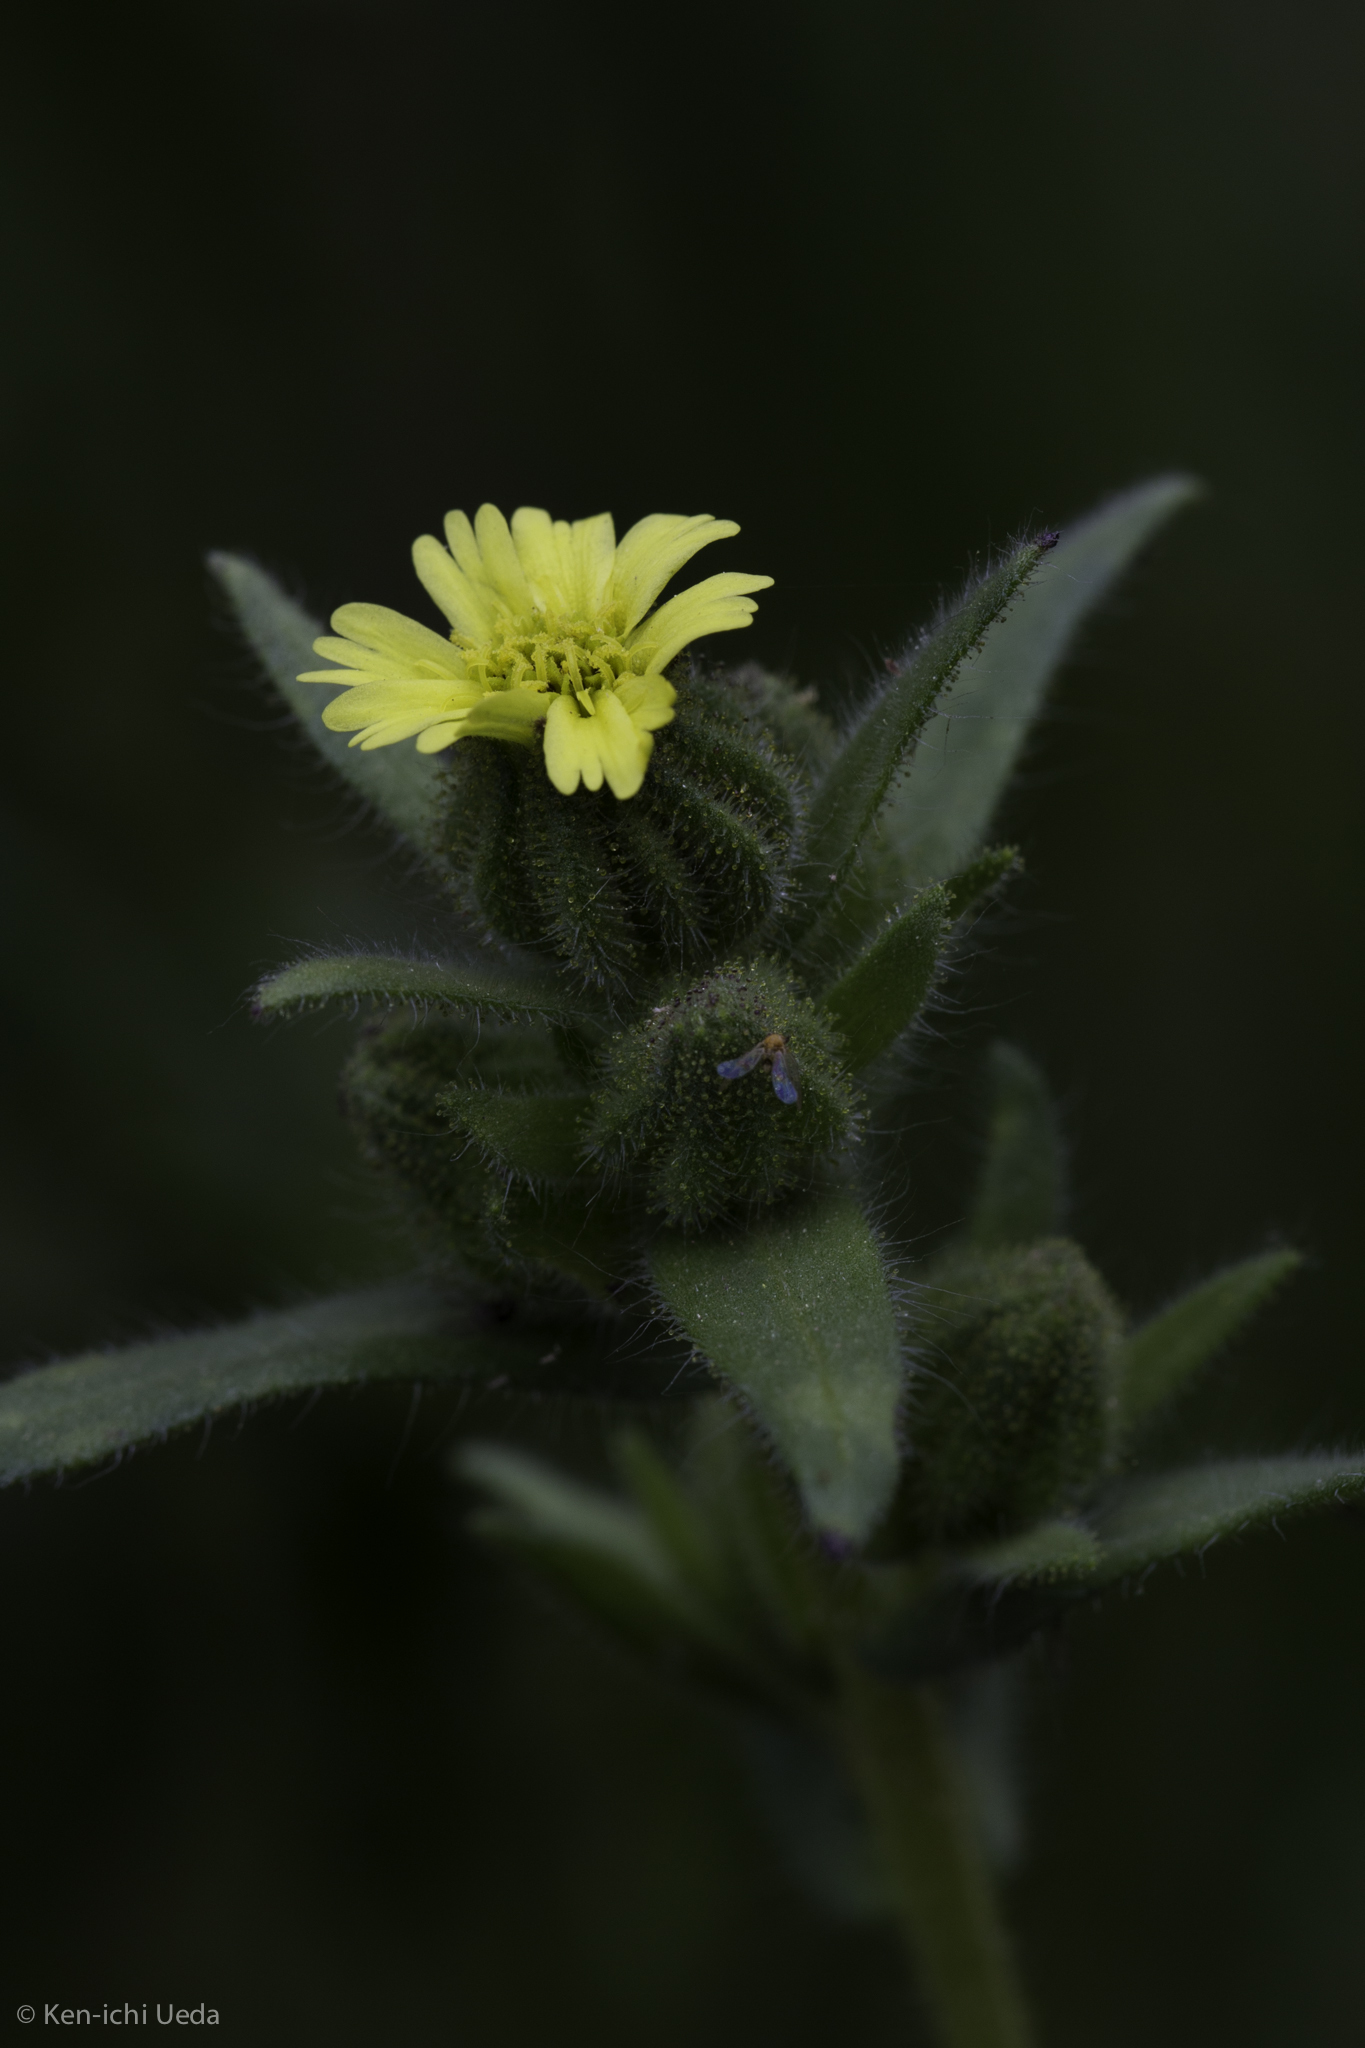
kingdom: Plantae
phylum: Tracheophyta
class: Magnoliopsida
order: Asterales
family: Asteraceae
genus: Madia
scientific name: Madia gracilis
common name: Grassy tarweed
